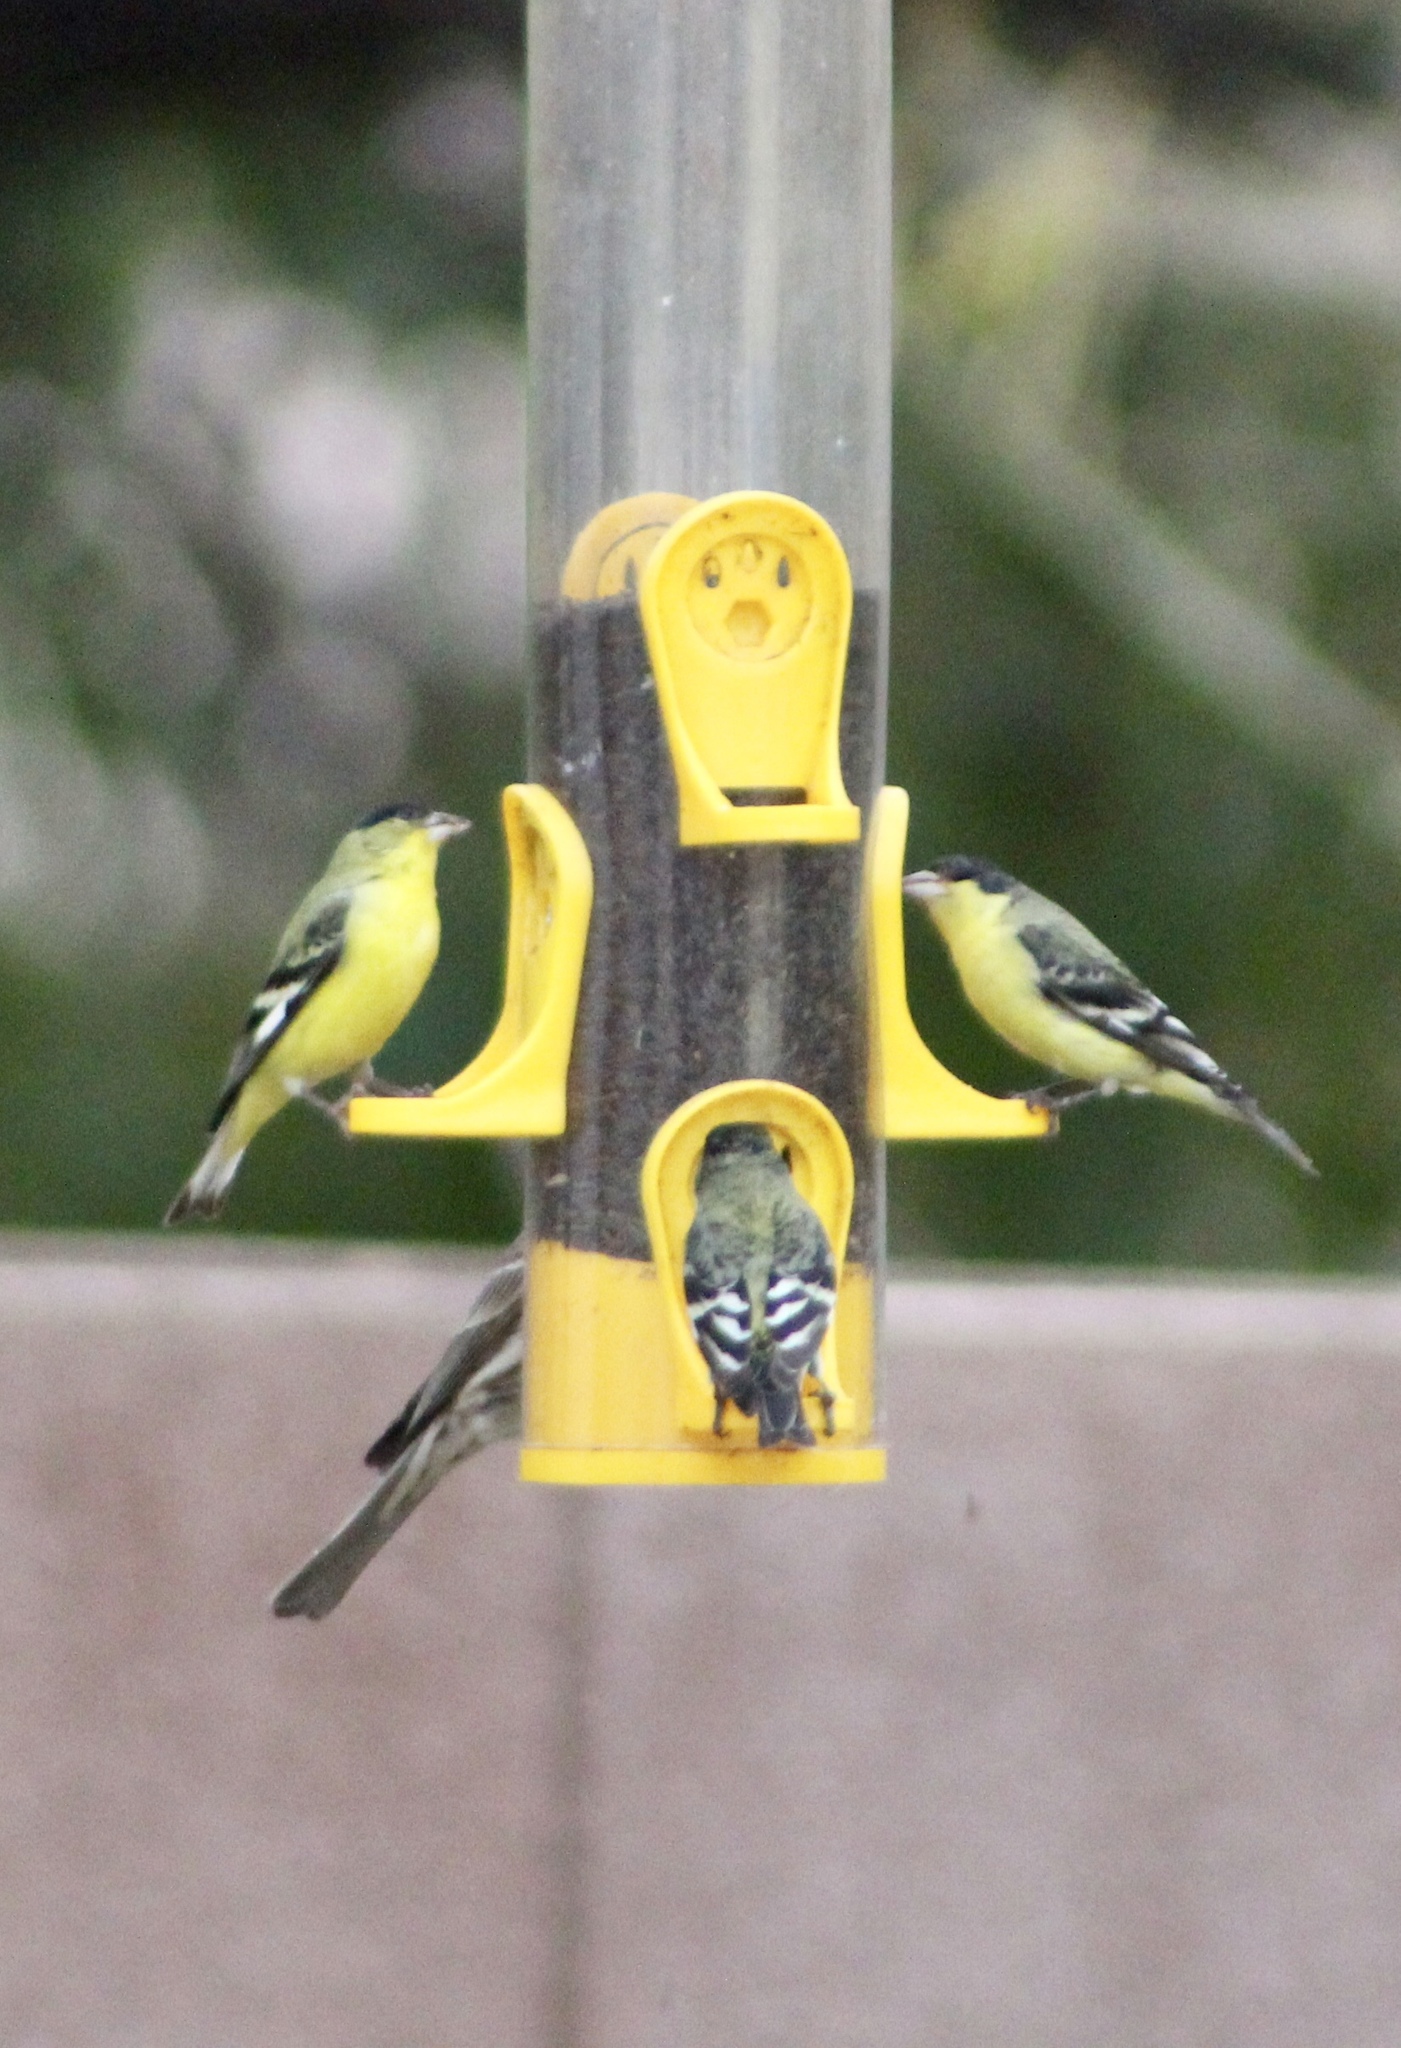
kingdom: Animalia
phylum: Chordata
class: Aves
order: Passeriformes
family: Fringillidae
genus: Spinus
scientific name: Spinus psaltria
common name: Lesser goldfinch
